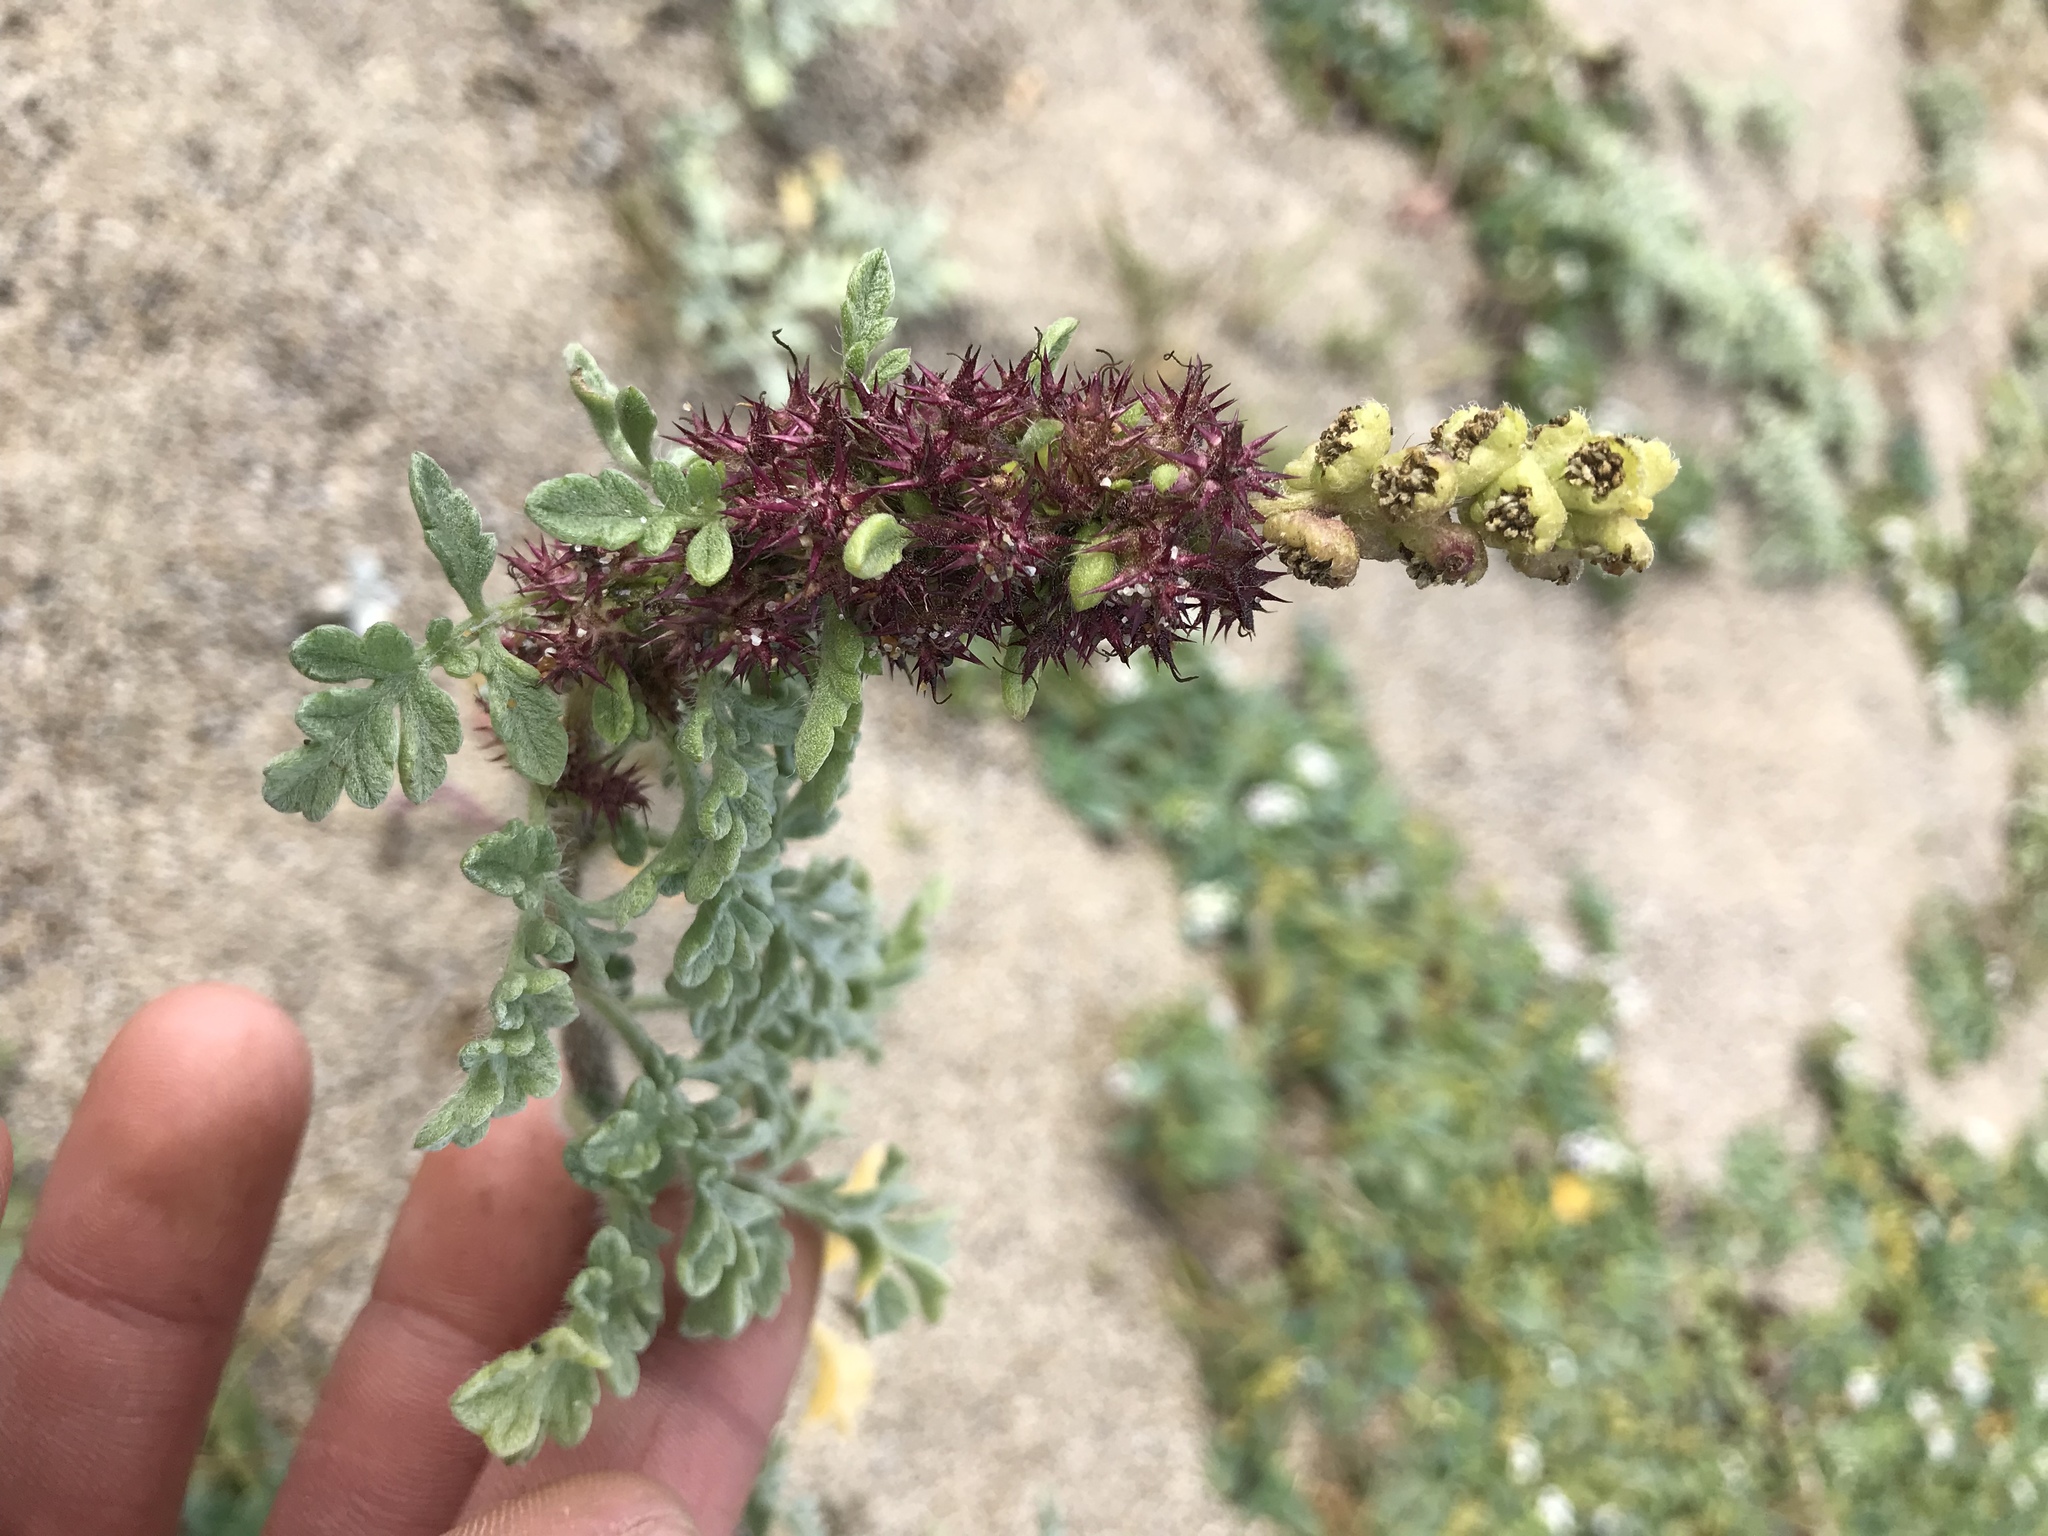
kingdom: Plantae
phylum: Tracheophyta
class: Magnoliopsida
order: Asterales
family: Asteraceae
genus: Ambrosia
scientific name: Ambrosia chamissonis
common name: Beachbur
